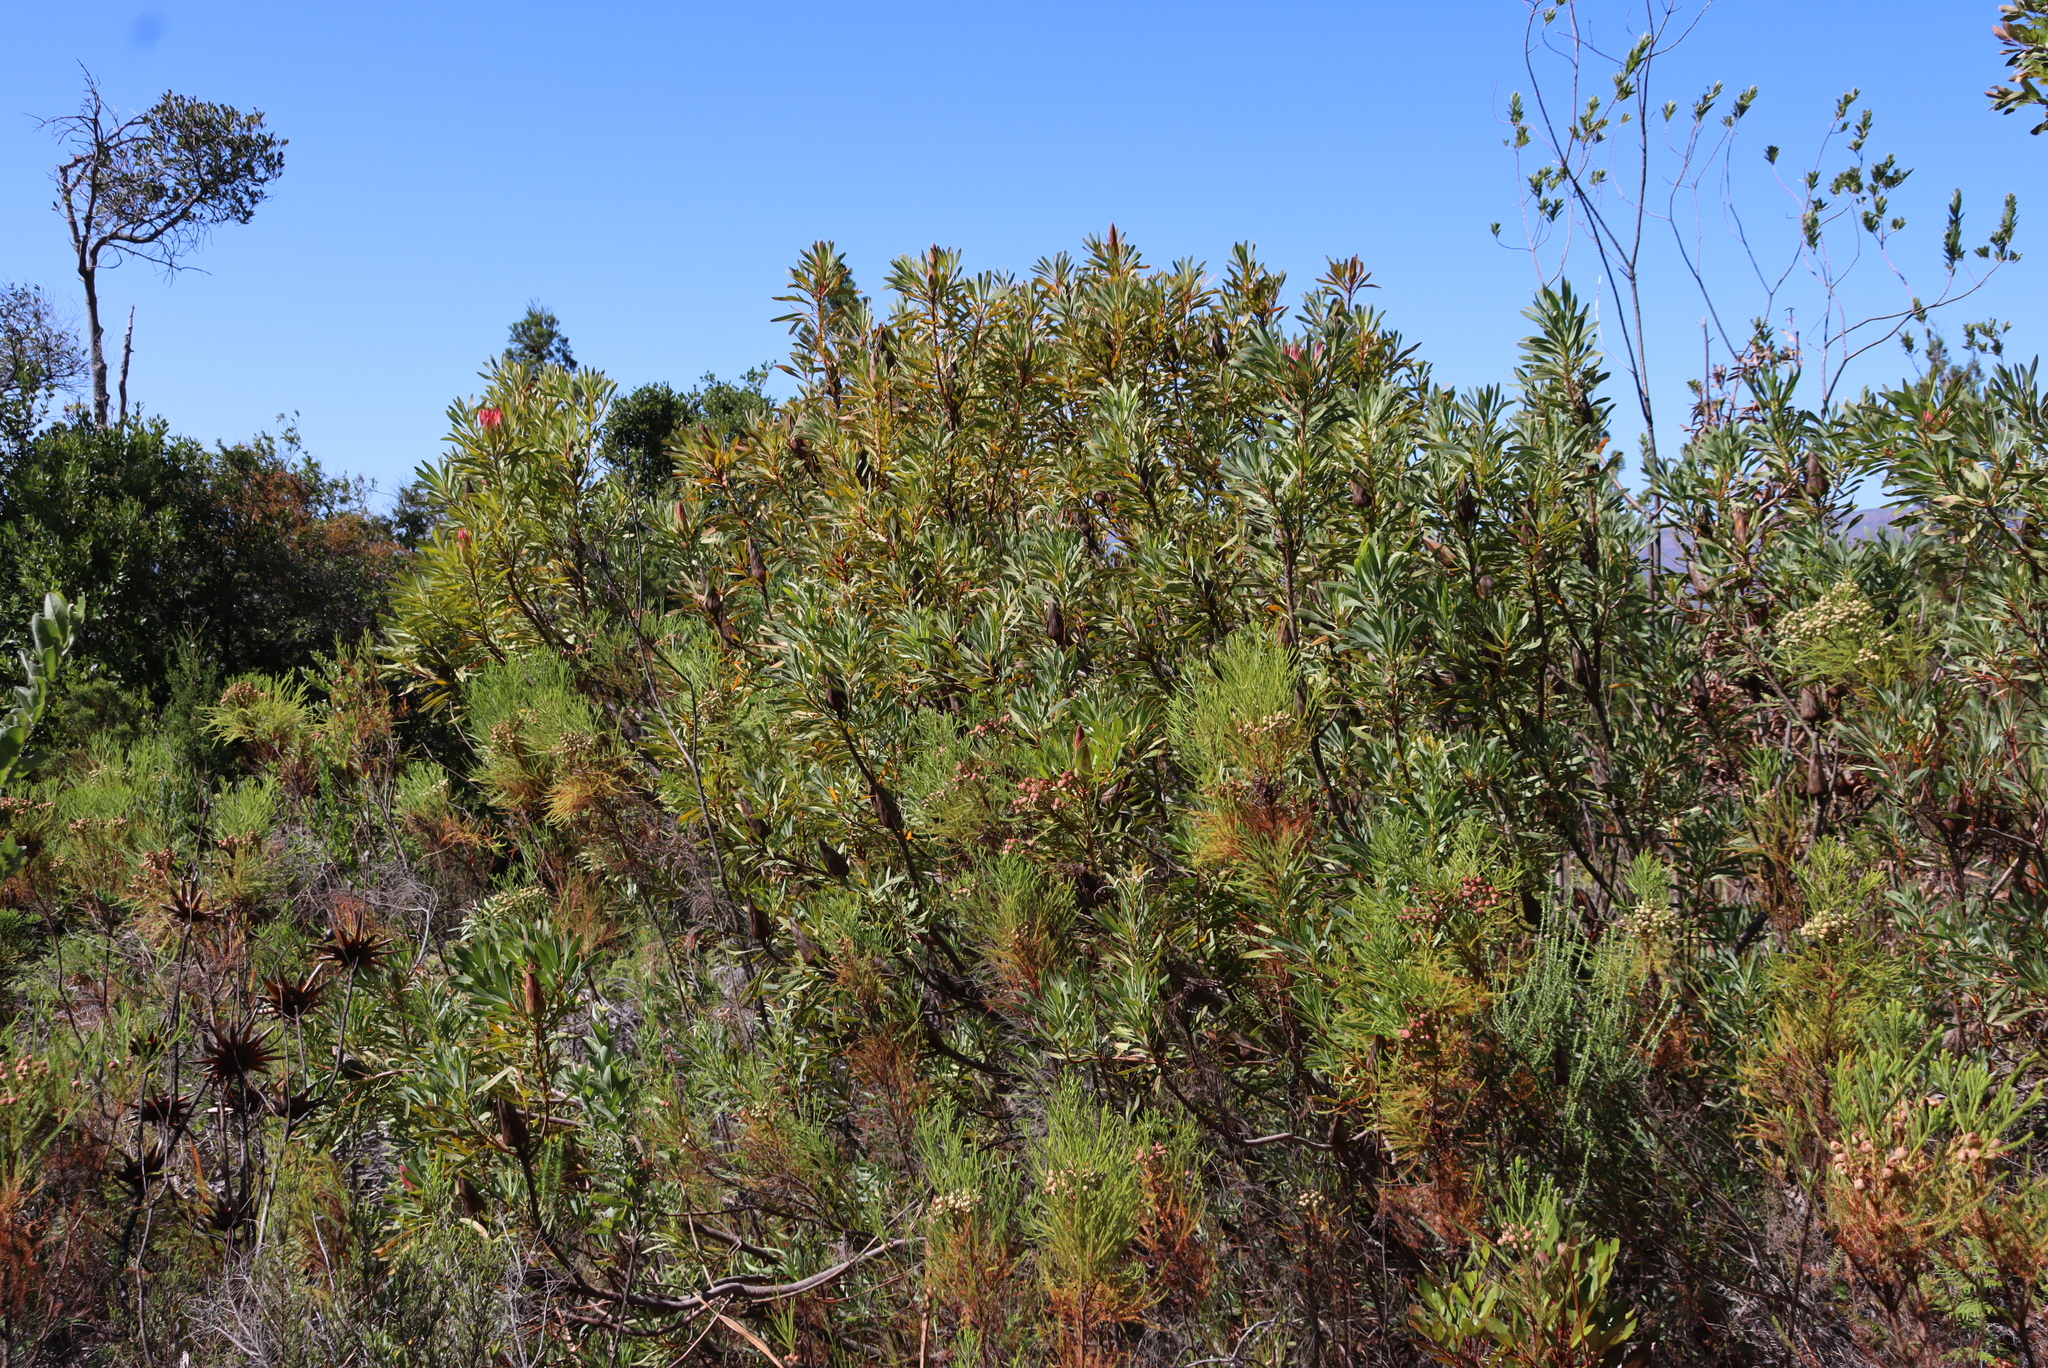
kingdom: Plantae
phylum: Tracheophyta
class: Magnoliopsida
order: Proteales
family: Proteaceae
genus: Protea
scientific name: Protea repens
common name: Sugarbush
